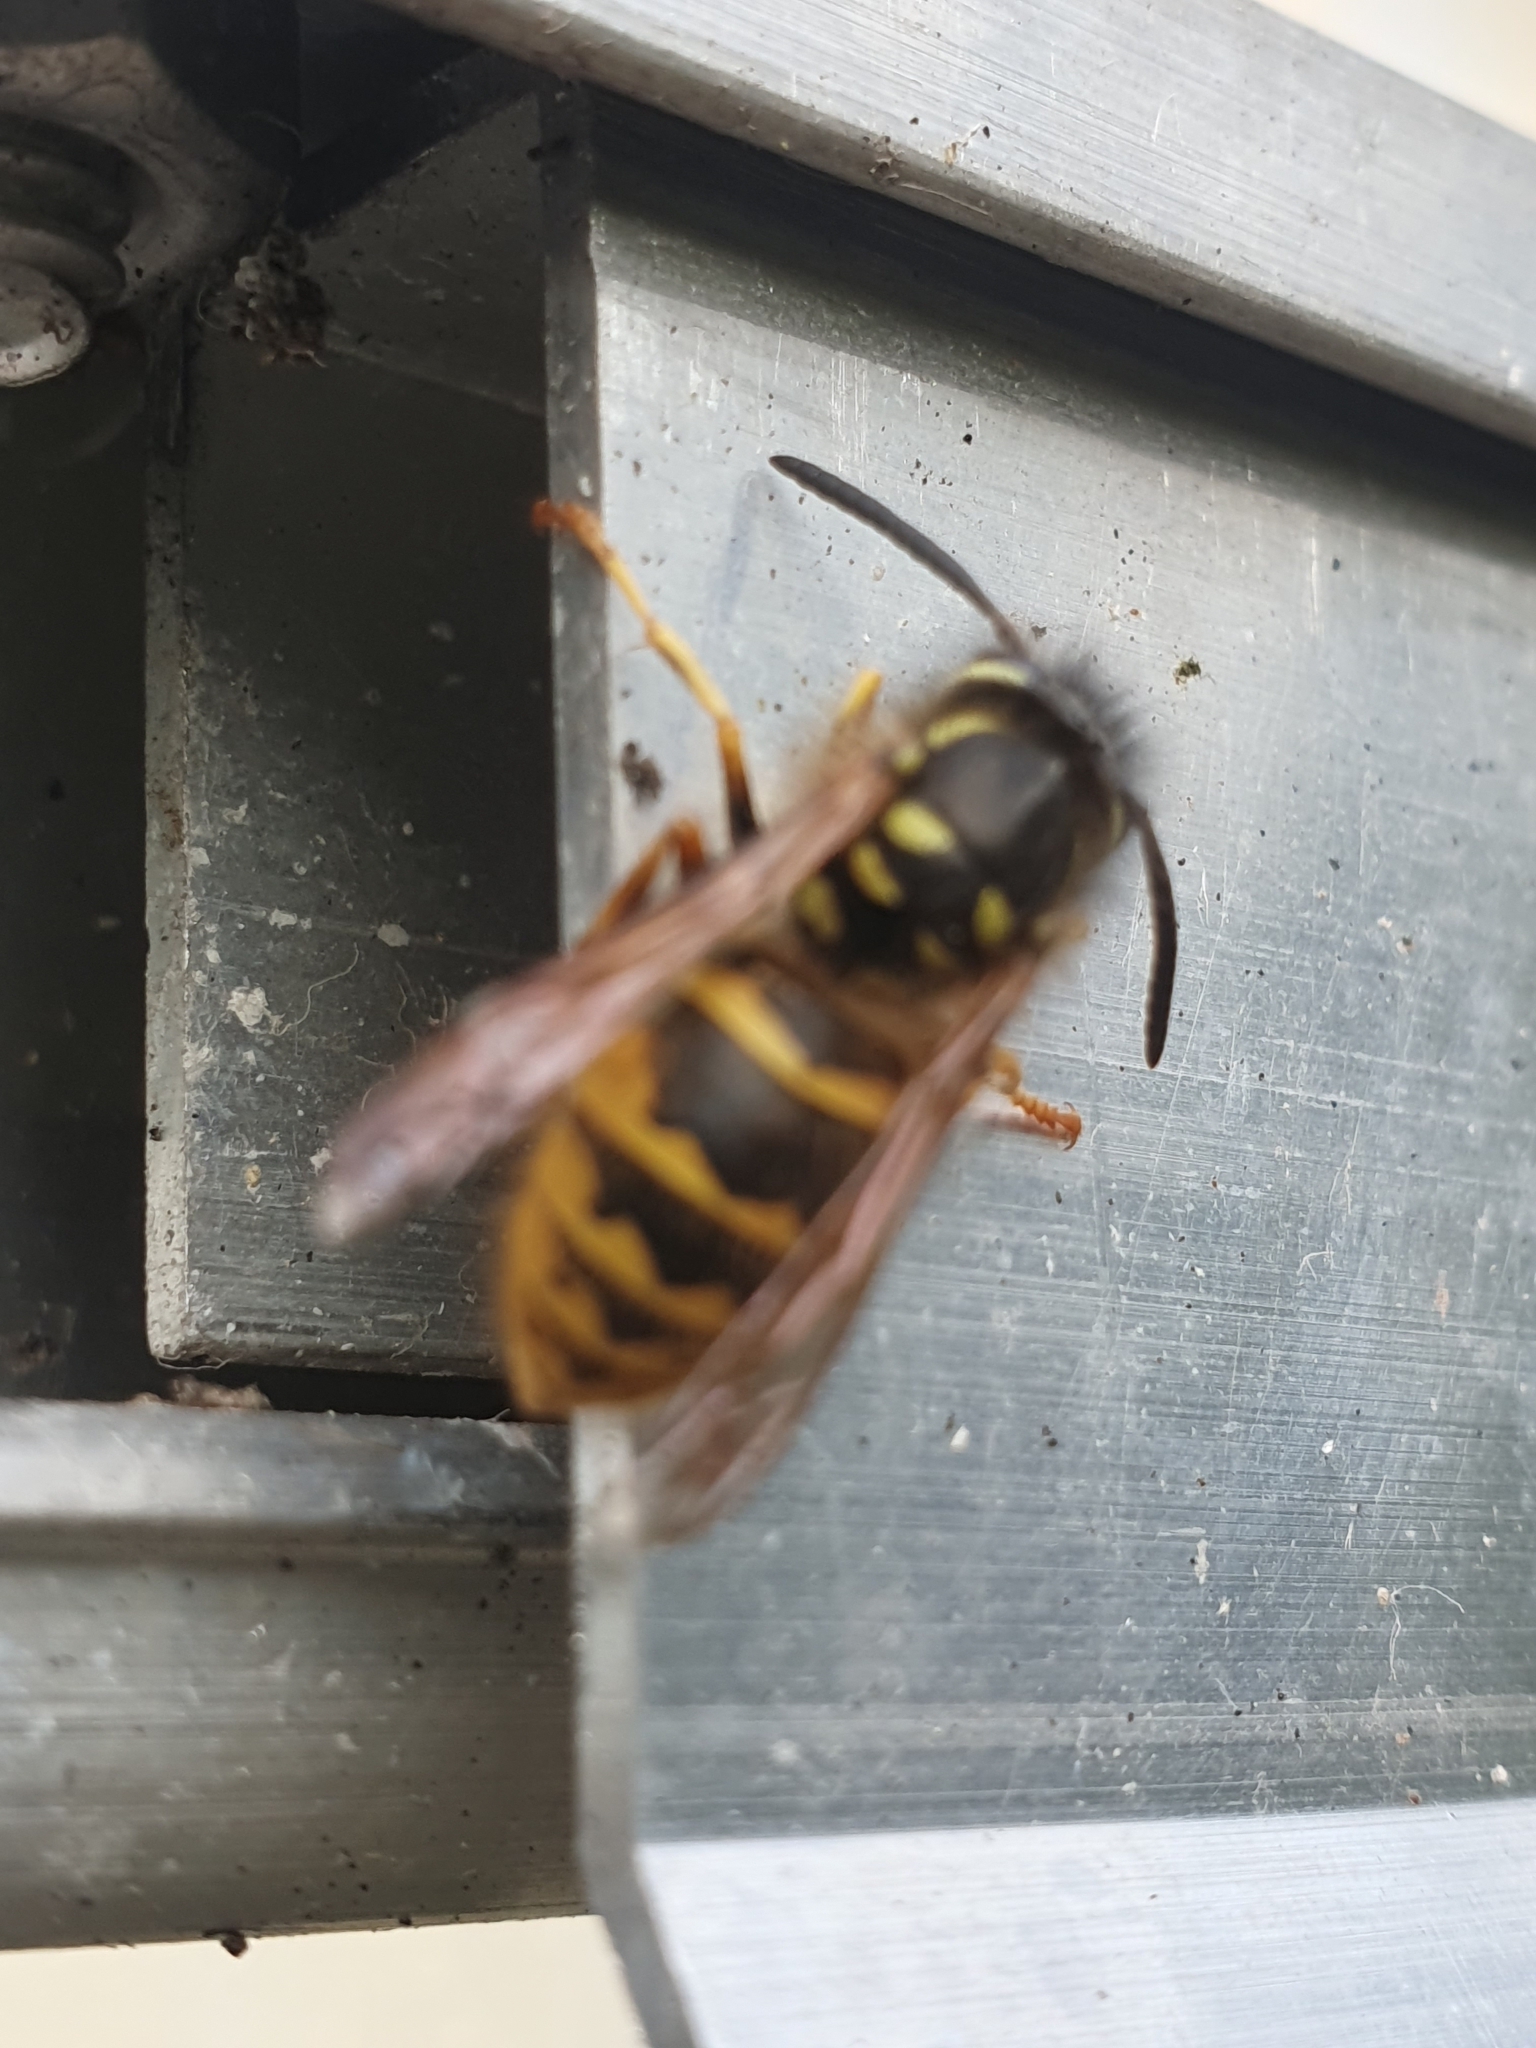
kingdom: Animalia
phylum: Arthropoda
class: Insecta
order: Hymenoptera
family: Vespidae
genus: Vespula
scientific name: Vespula vulgaris
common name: Common wasp
